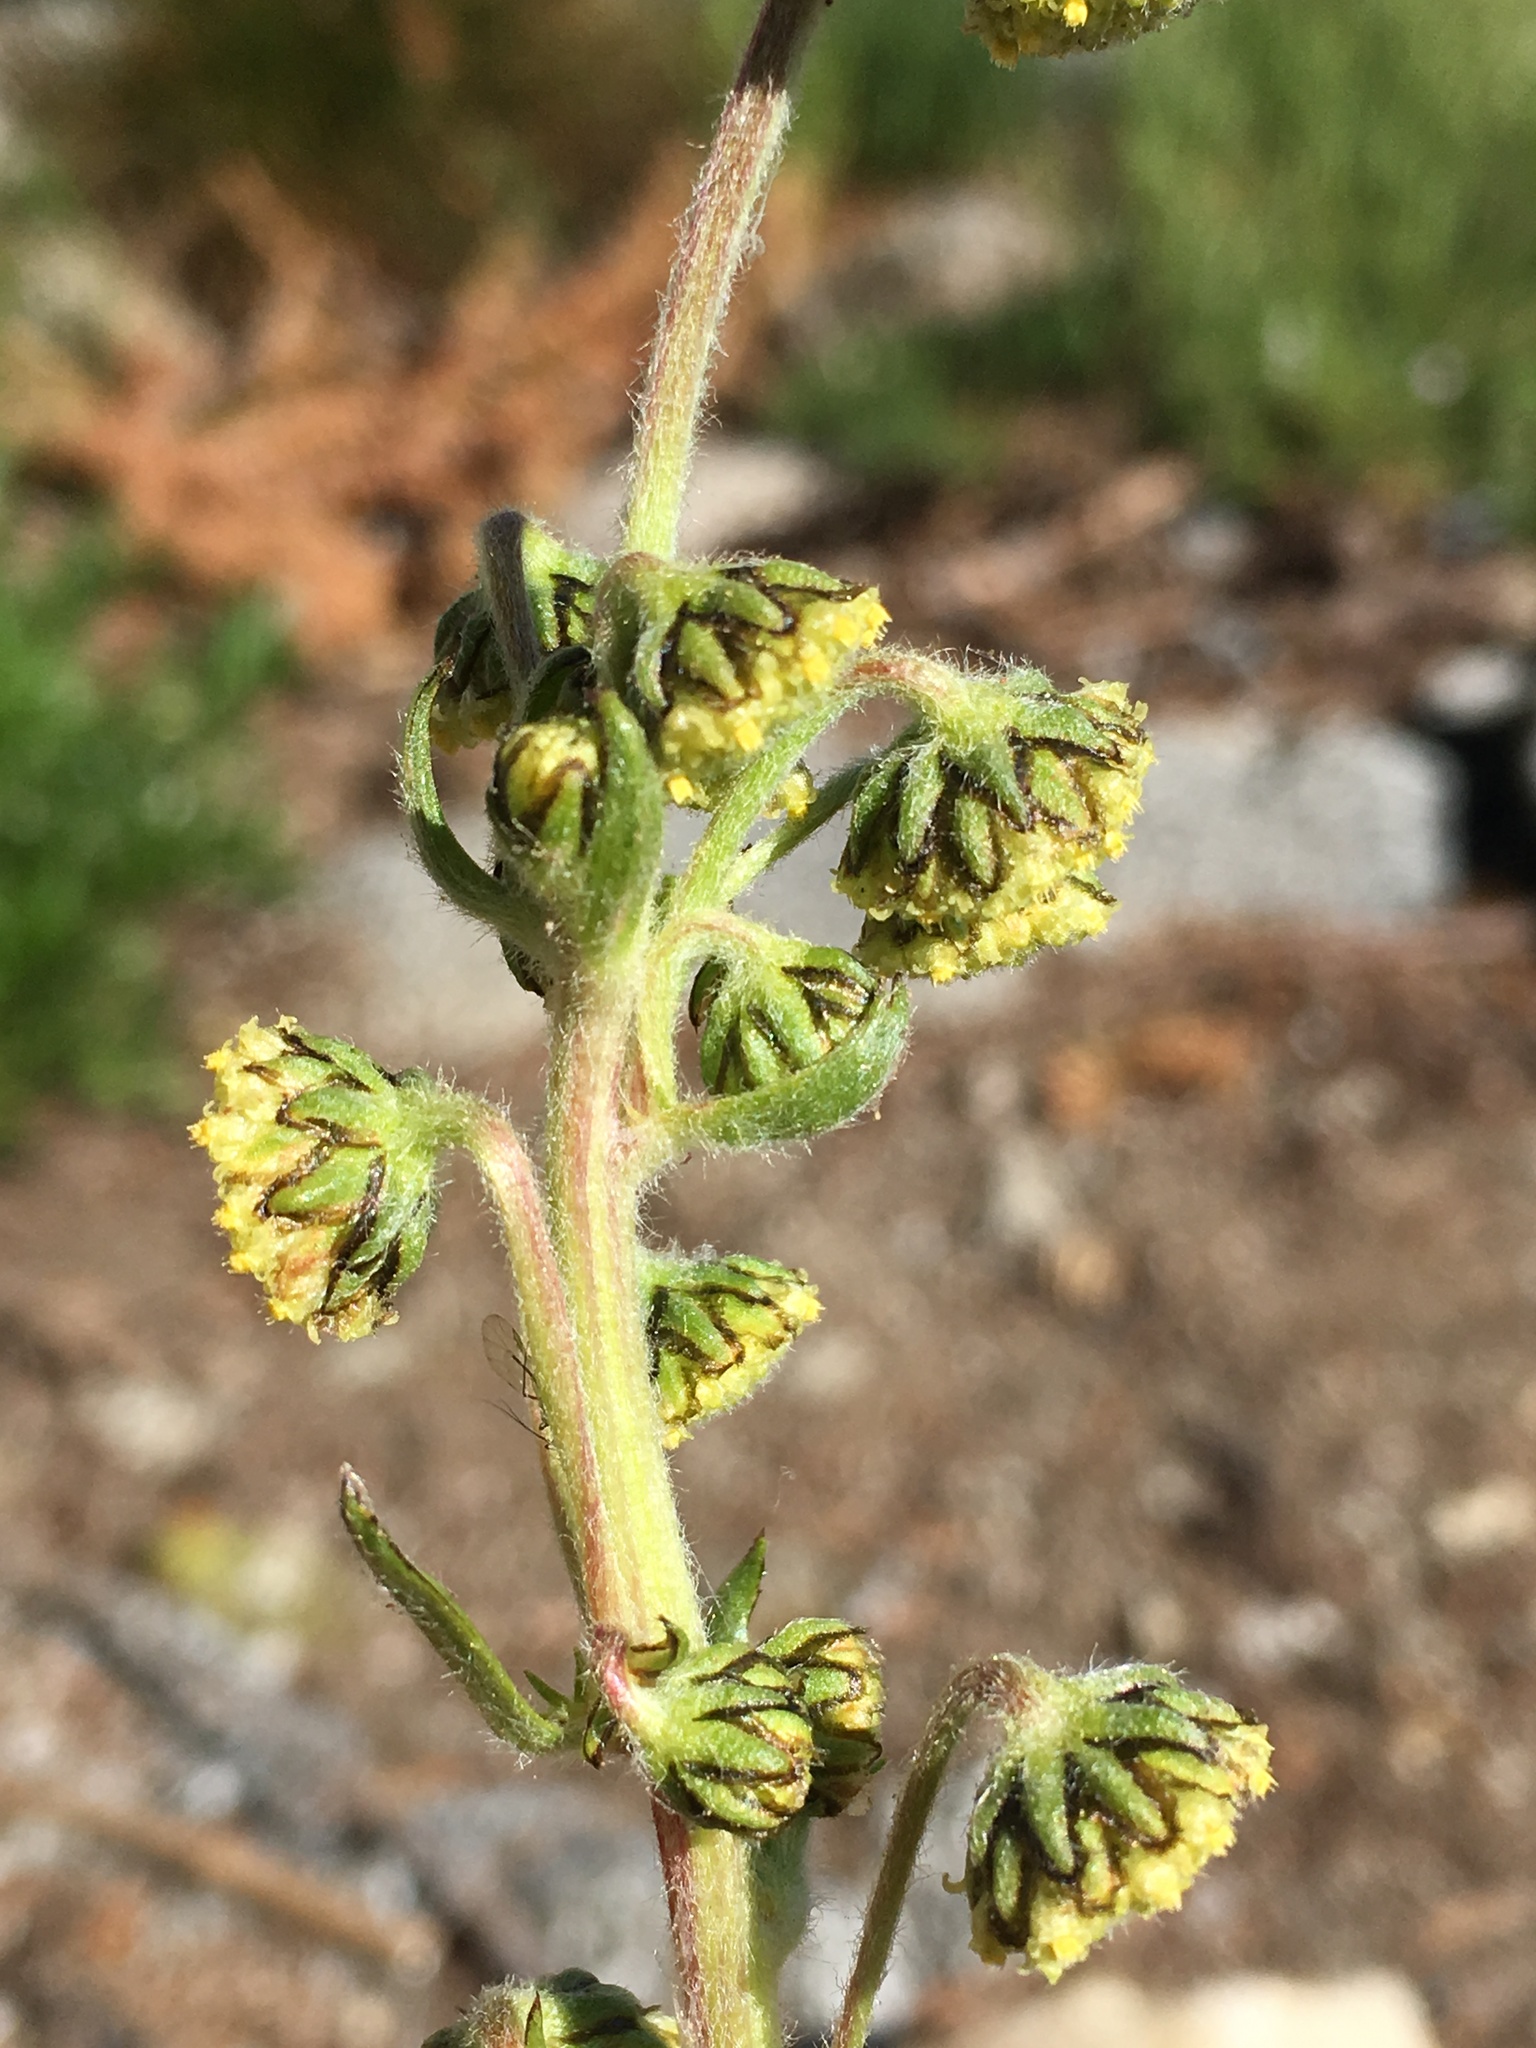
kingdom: Plantae
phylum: Tracheophyta
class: Magnoliopsida
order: Asterales
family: Asteraceae
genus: Artemisia
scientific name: Artemisia norvegica
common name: Norwegian mugwort
